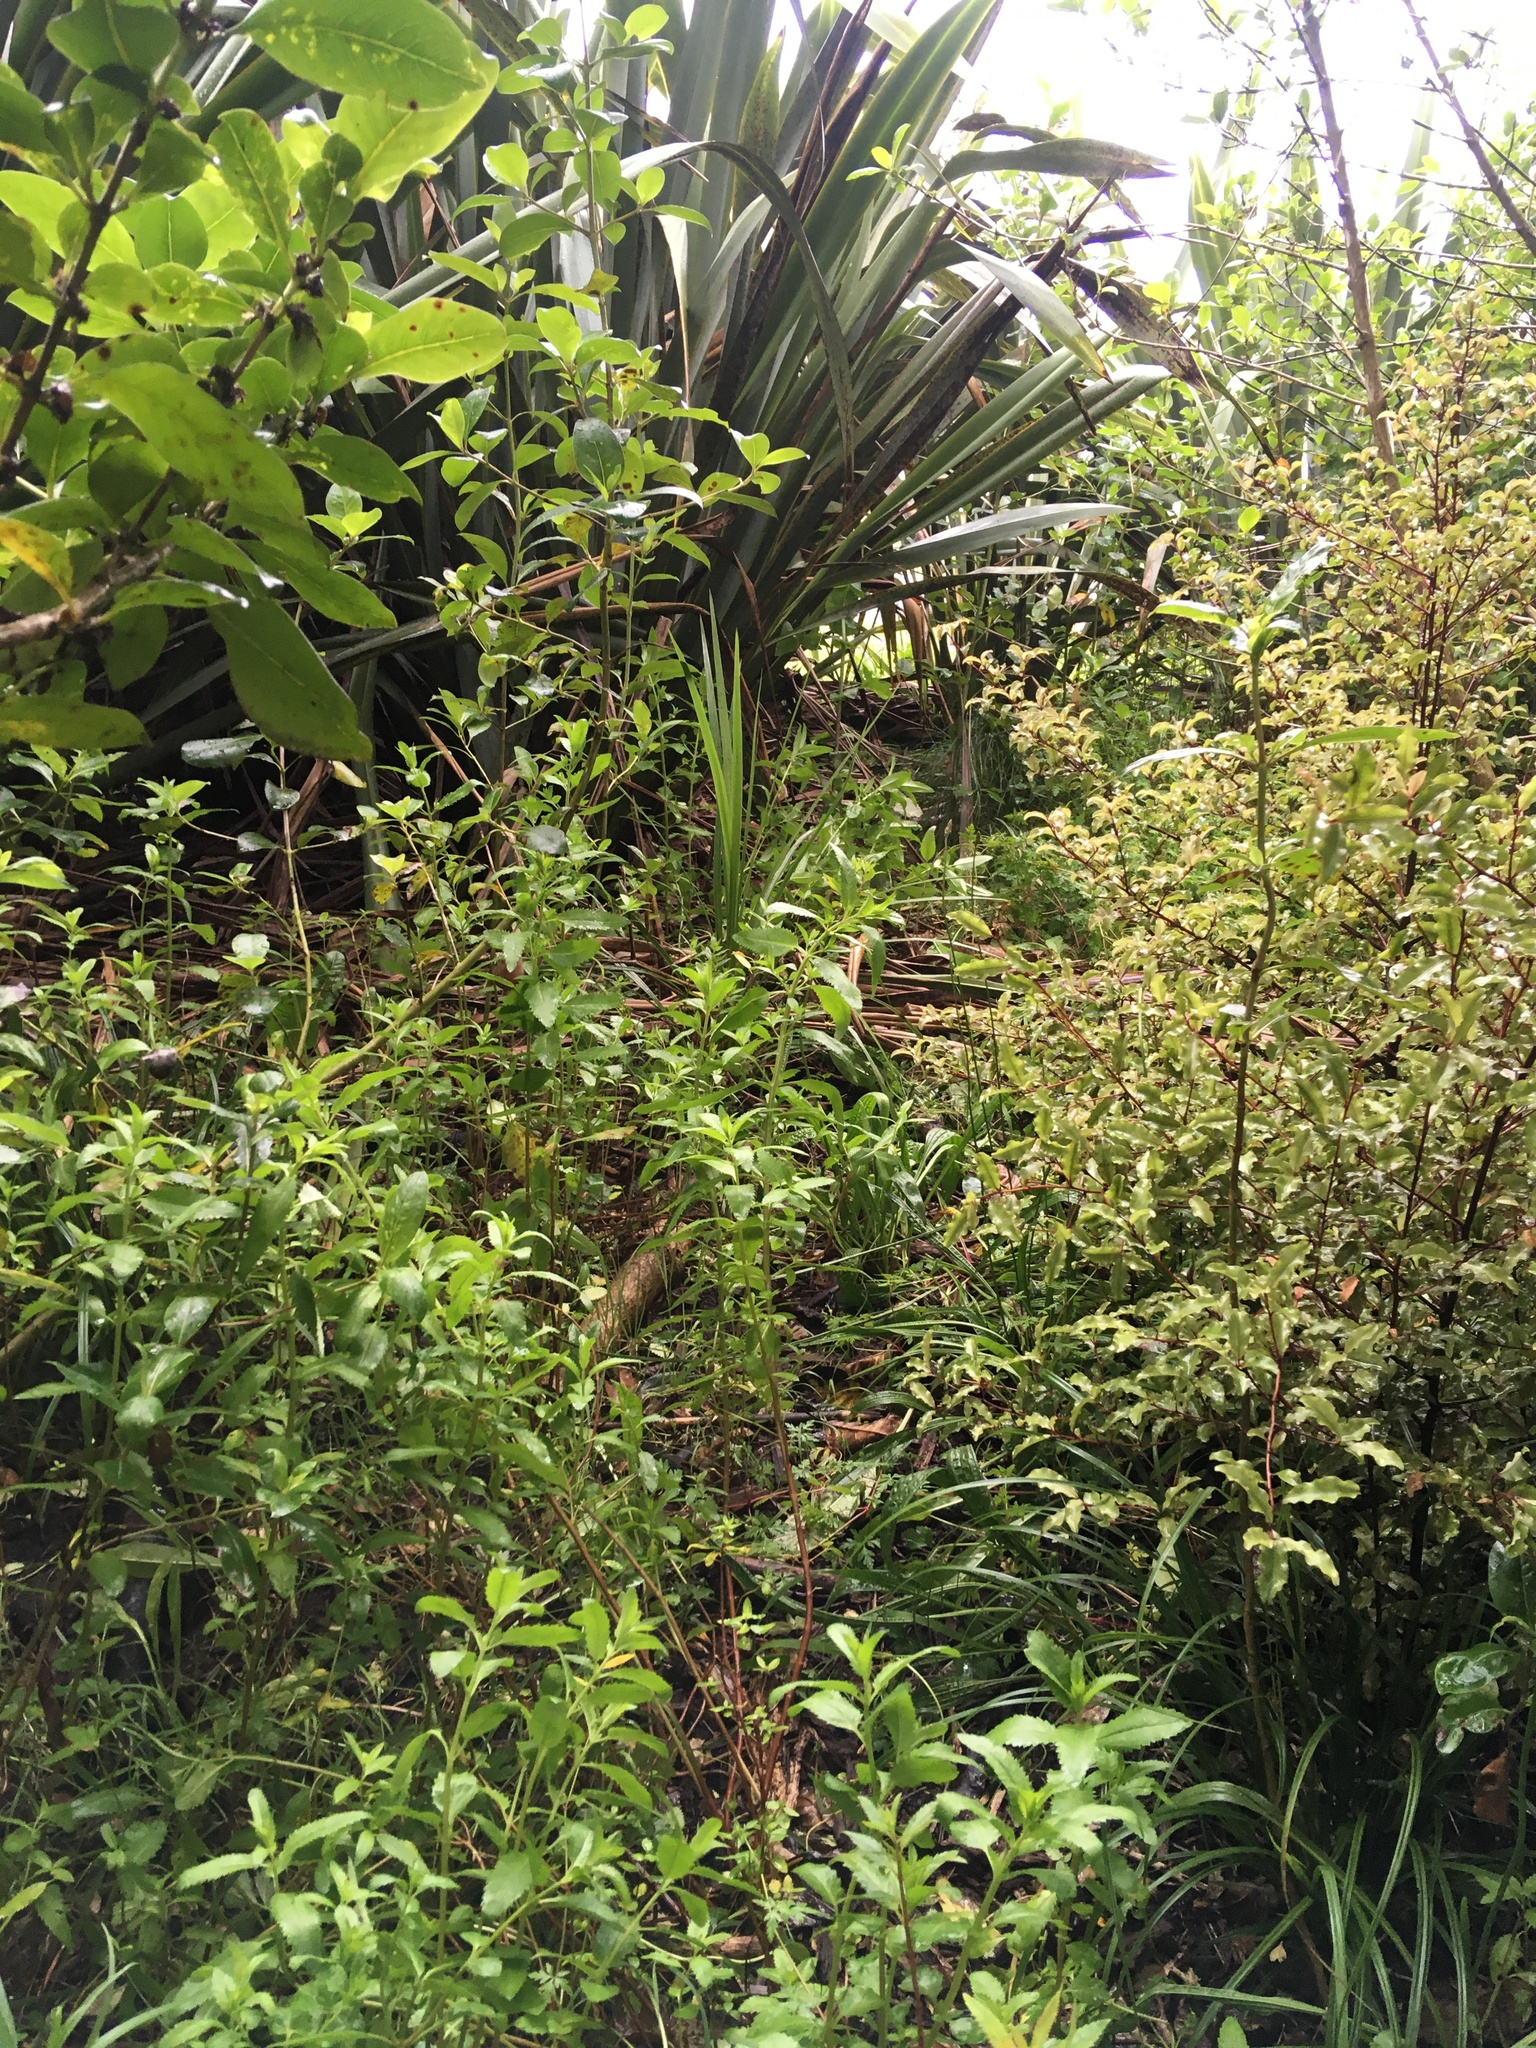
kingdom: Plantae
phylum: Tracheophyta
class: Liliopsida
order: Asparagales
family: Asparagaceae
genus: Cordyline
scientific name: Cordyline australis
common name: Cabbage-palm
